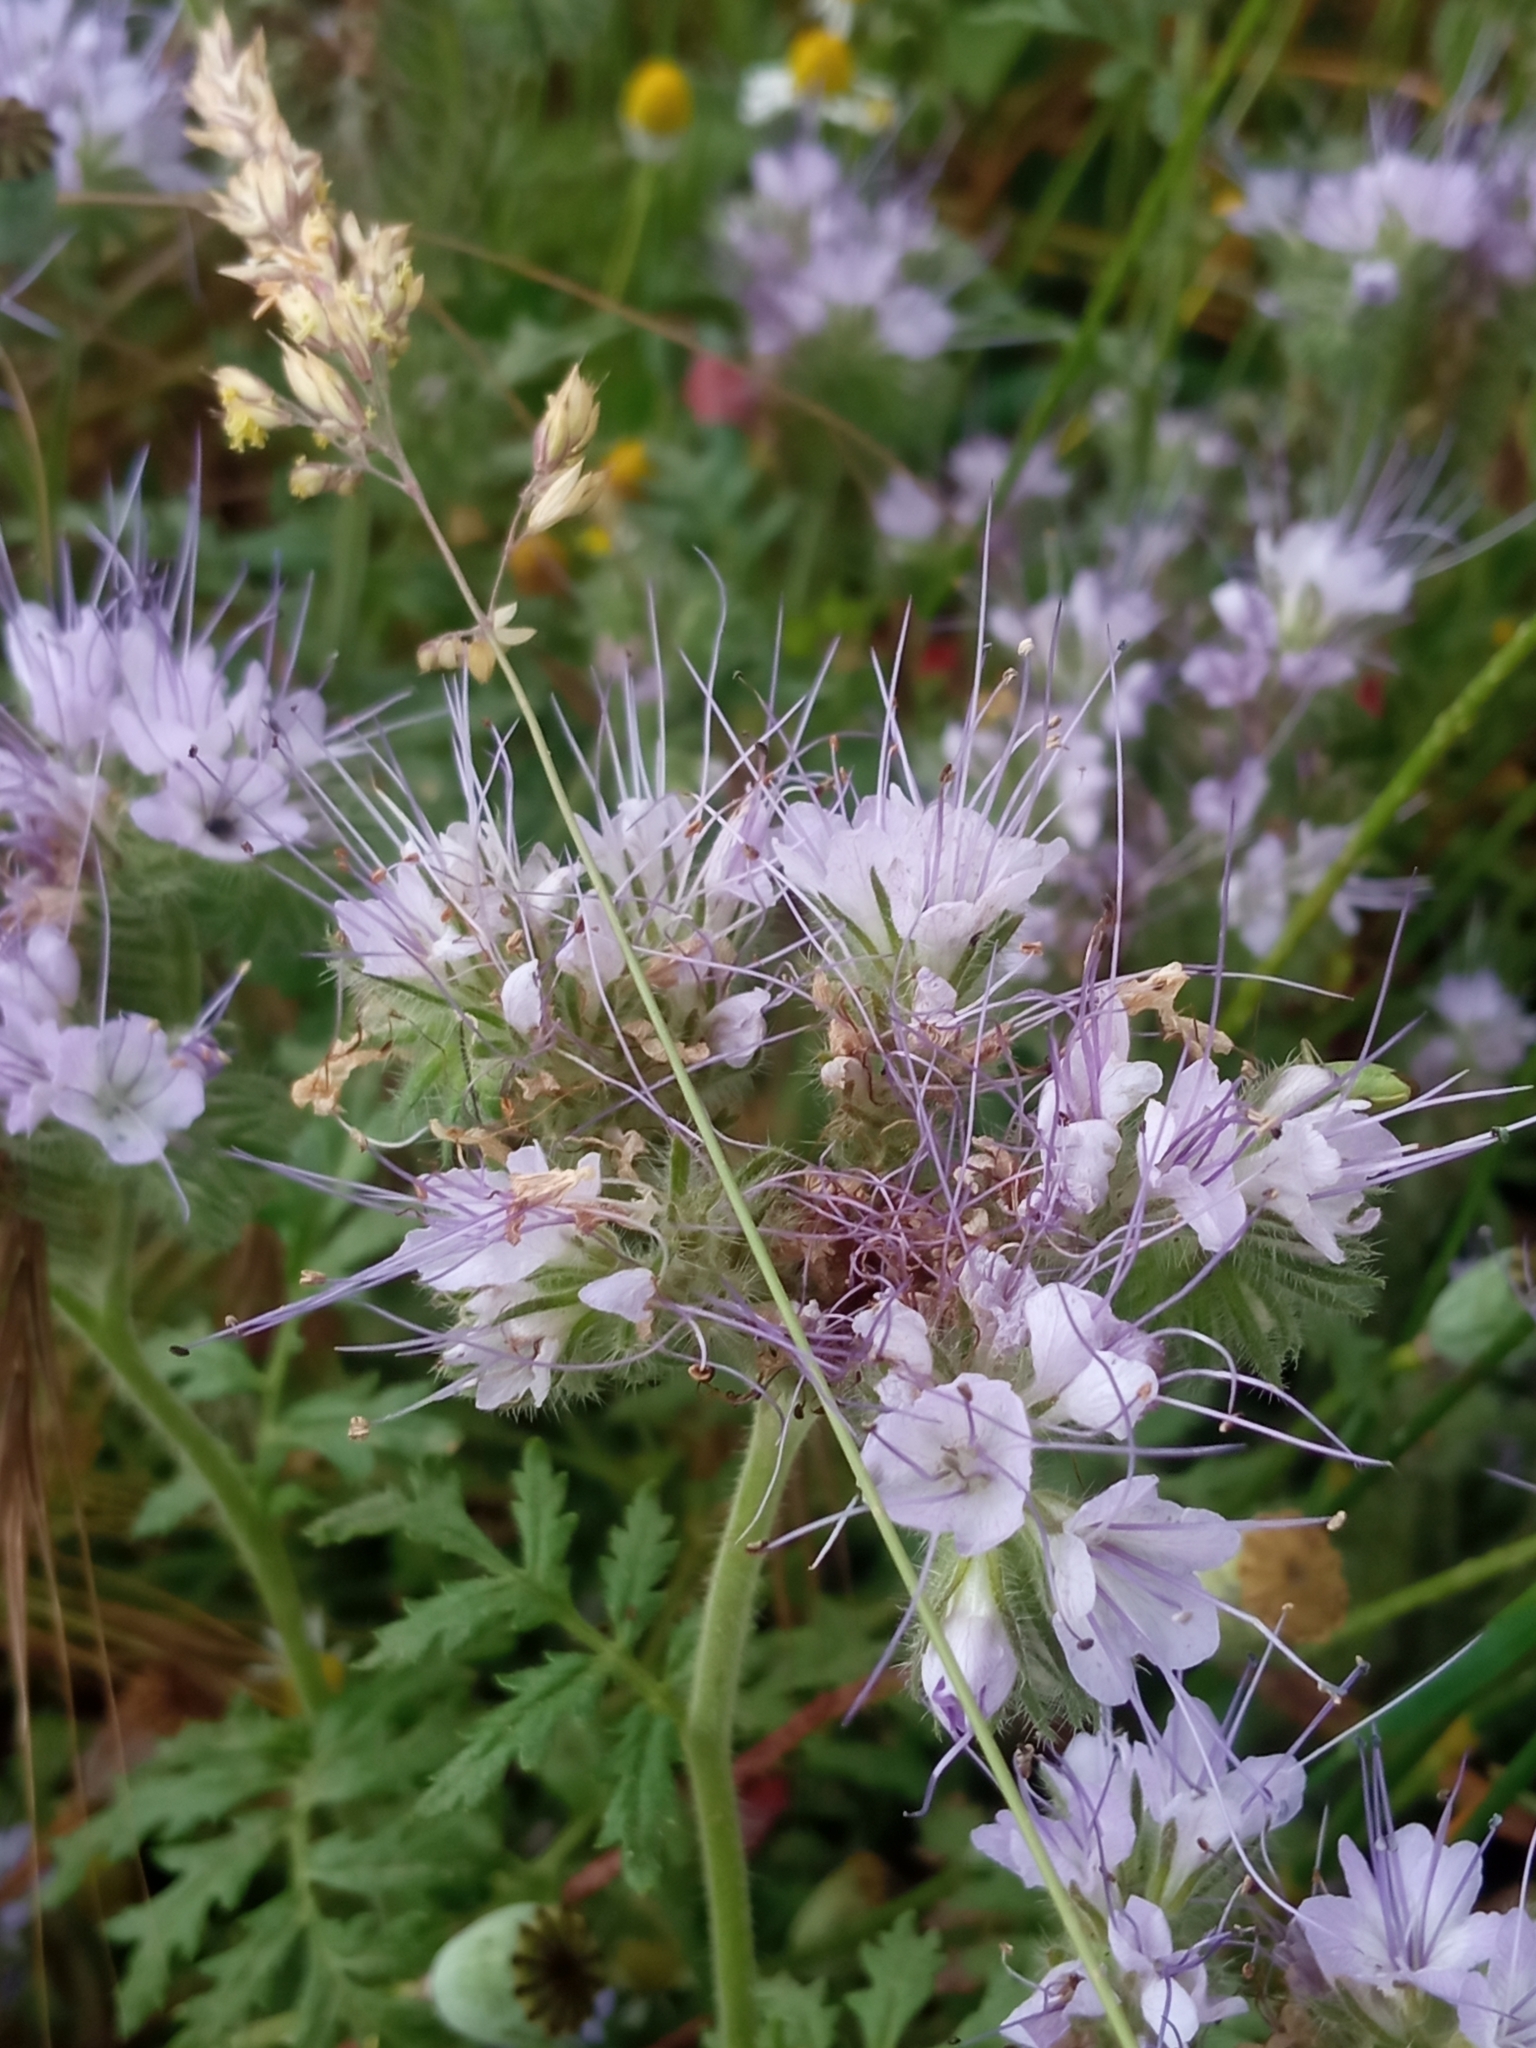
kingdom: Plantae
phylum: Tracheophyta
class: Magnoliopsida
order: Boraginales
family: Hydrophyllaceae
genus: Phacelia
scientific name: Phacelia tanacetifolia
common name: Phacelia
